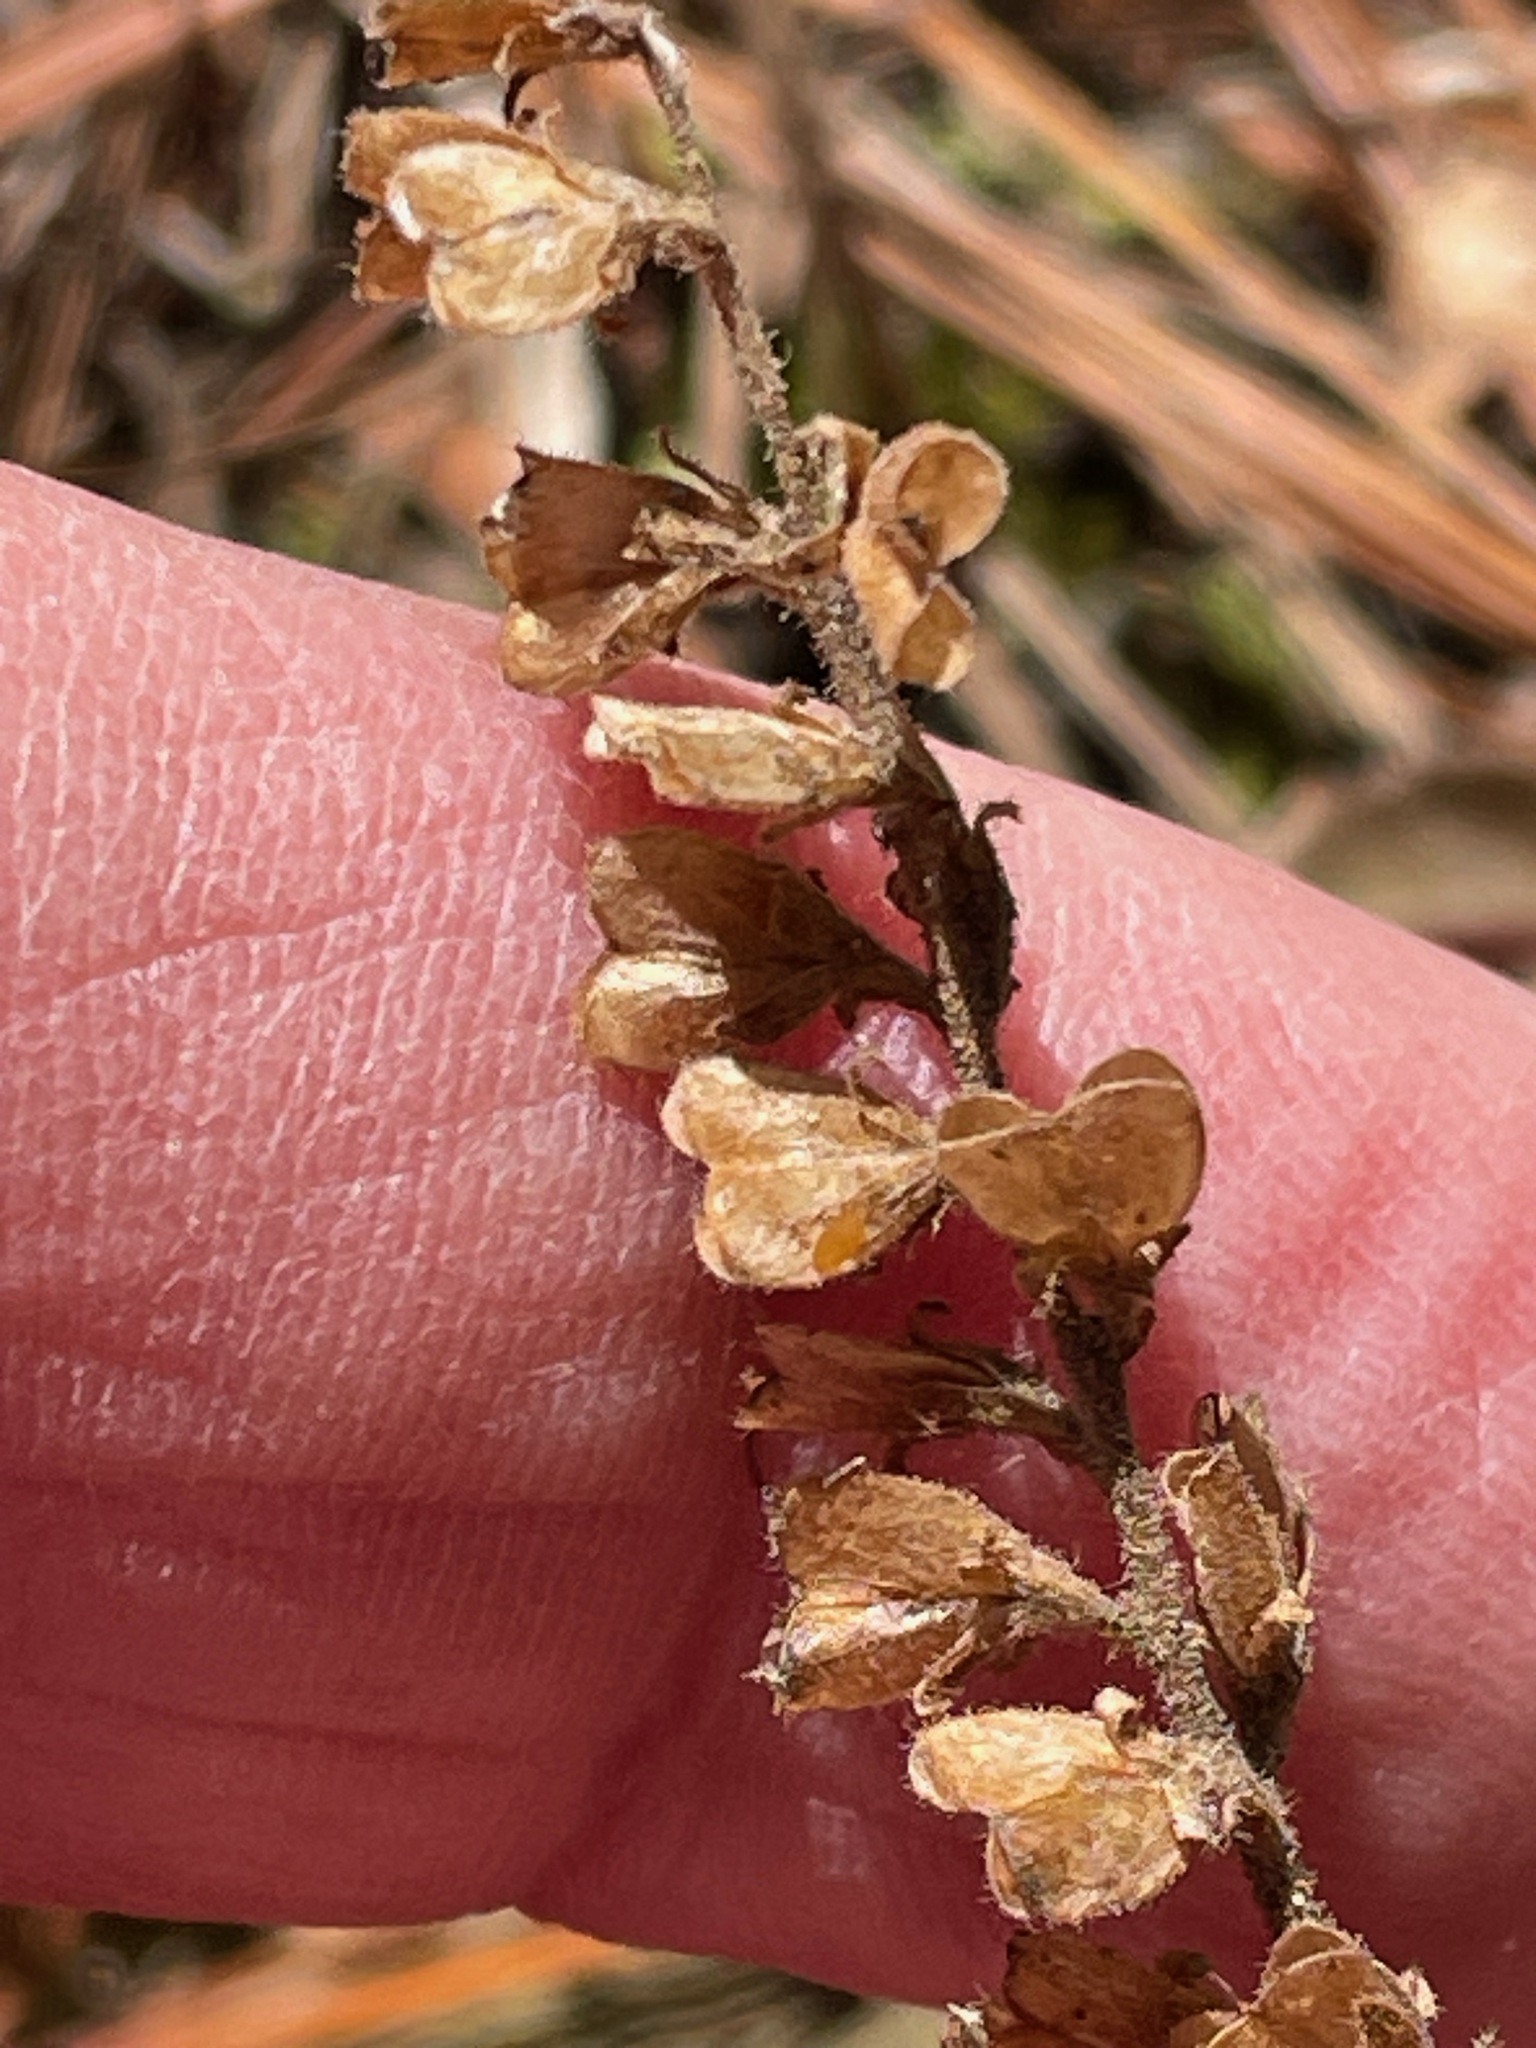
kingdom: Plantae
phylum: Tracheophyta
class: Magnoliopsida
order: Lamiales
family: Plantaginaceae
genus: Veronica
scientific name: Veronica officinalis
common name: Common speedwell
